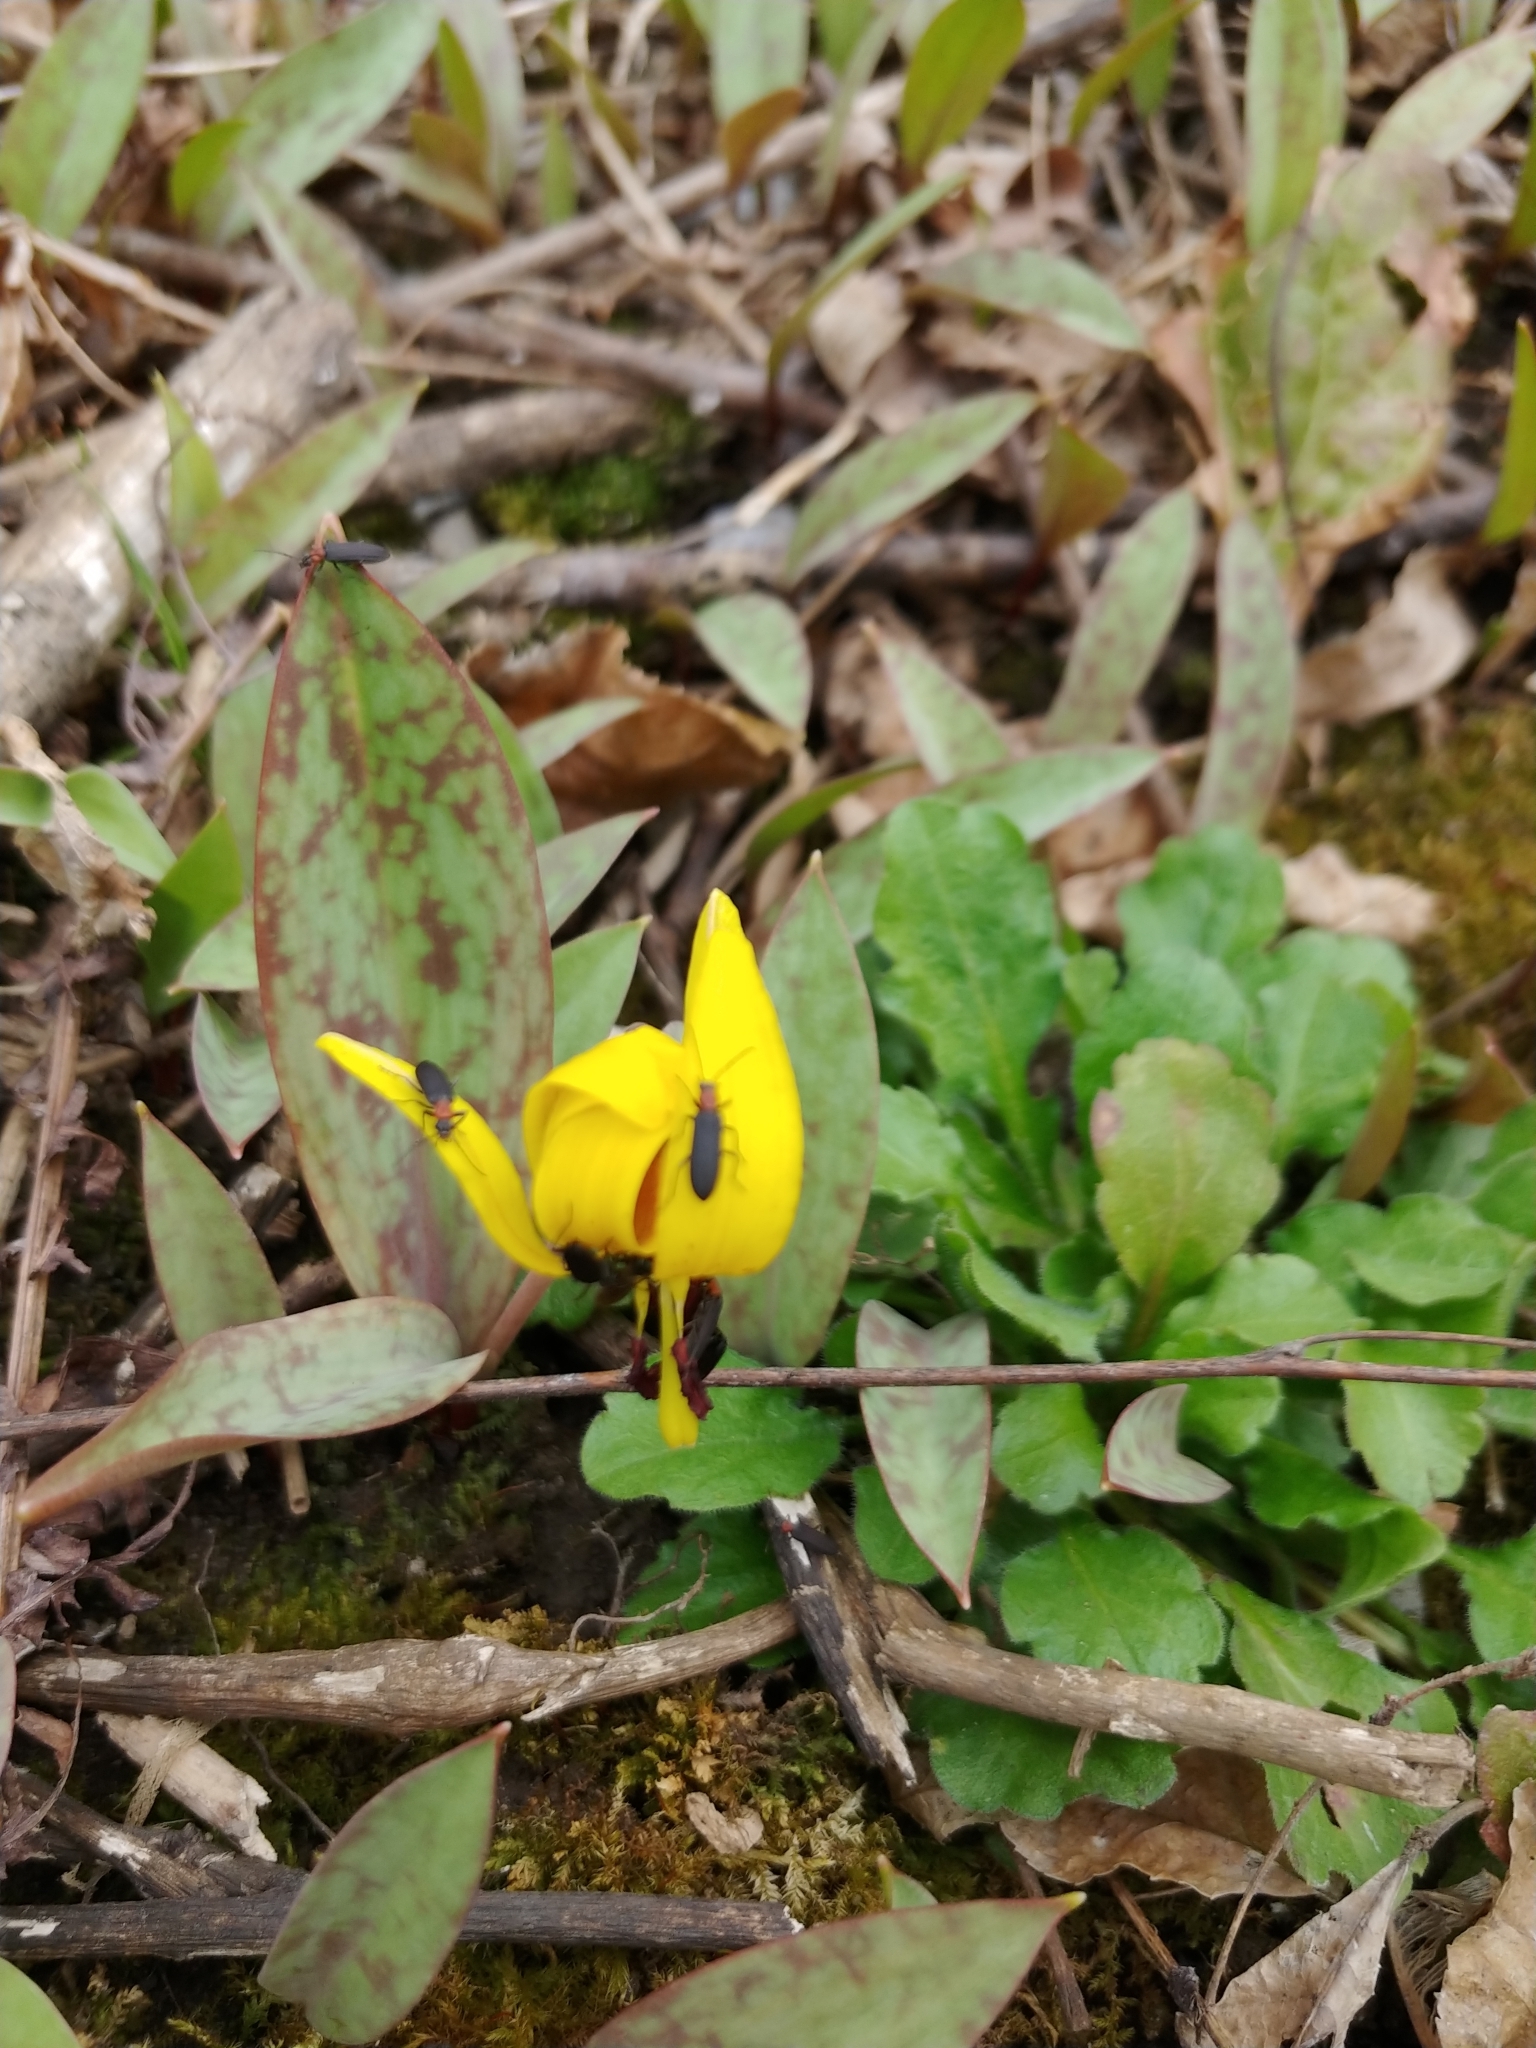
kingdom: Plantae
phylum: Tracheophyta
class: Liliopsida
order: Liliales
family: Liliaceae
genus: Erythronium
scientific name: Erythronium americanum
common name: Yellow adder's-tongue
